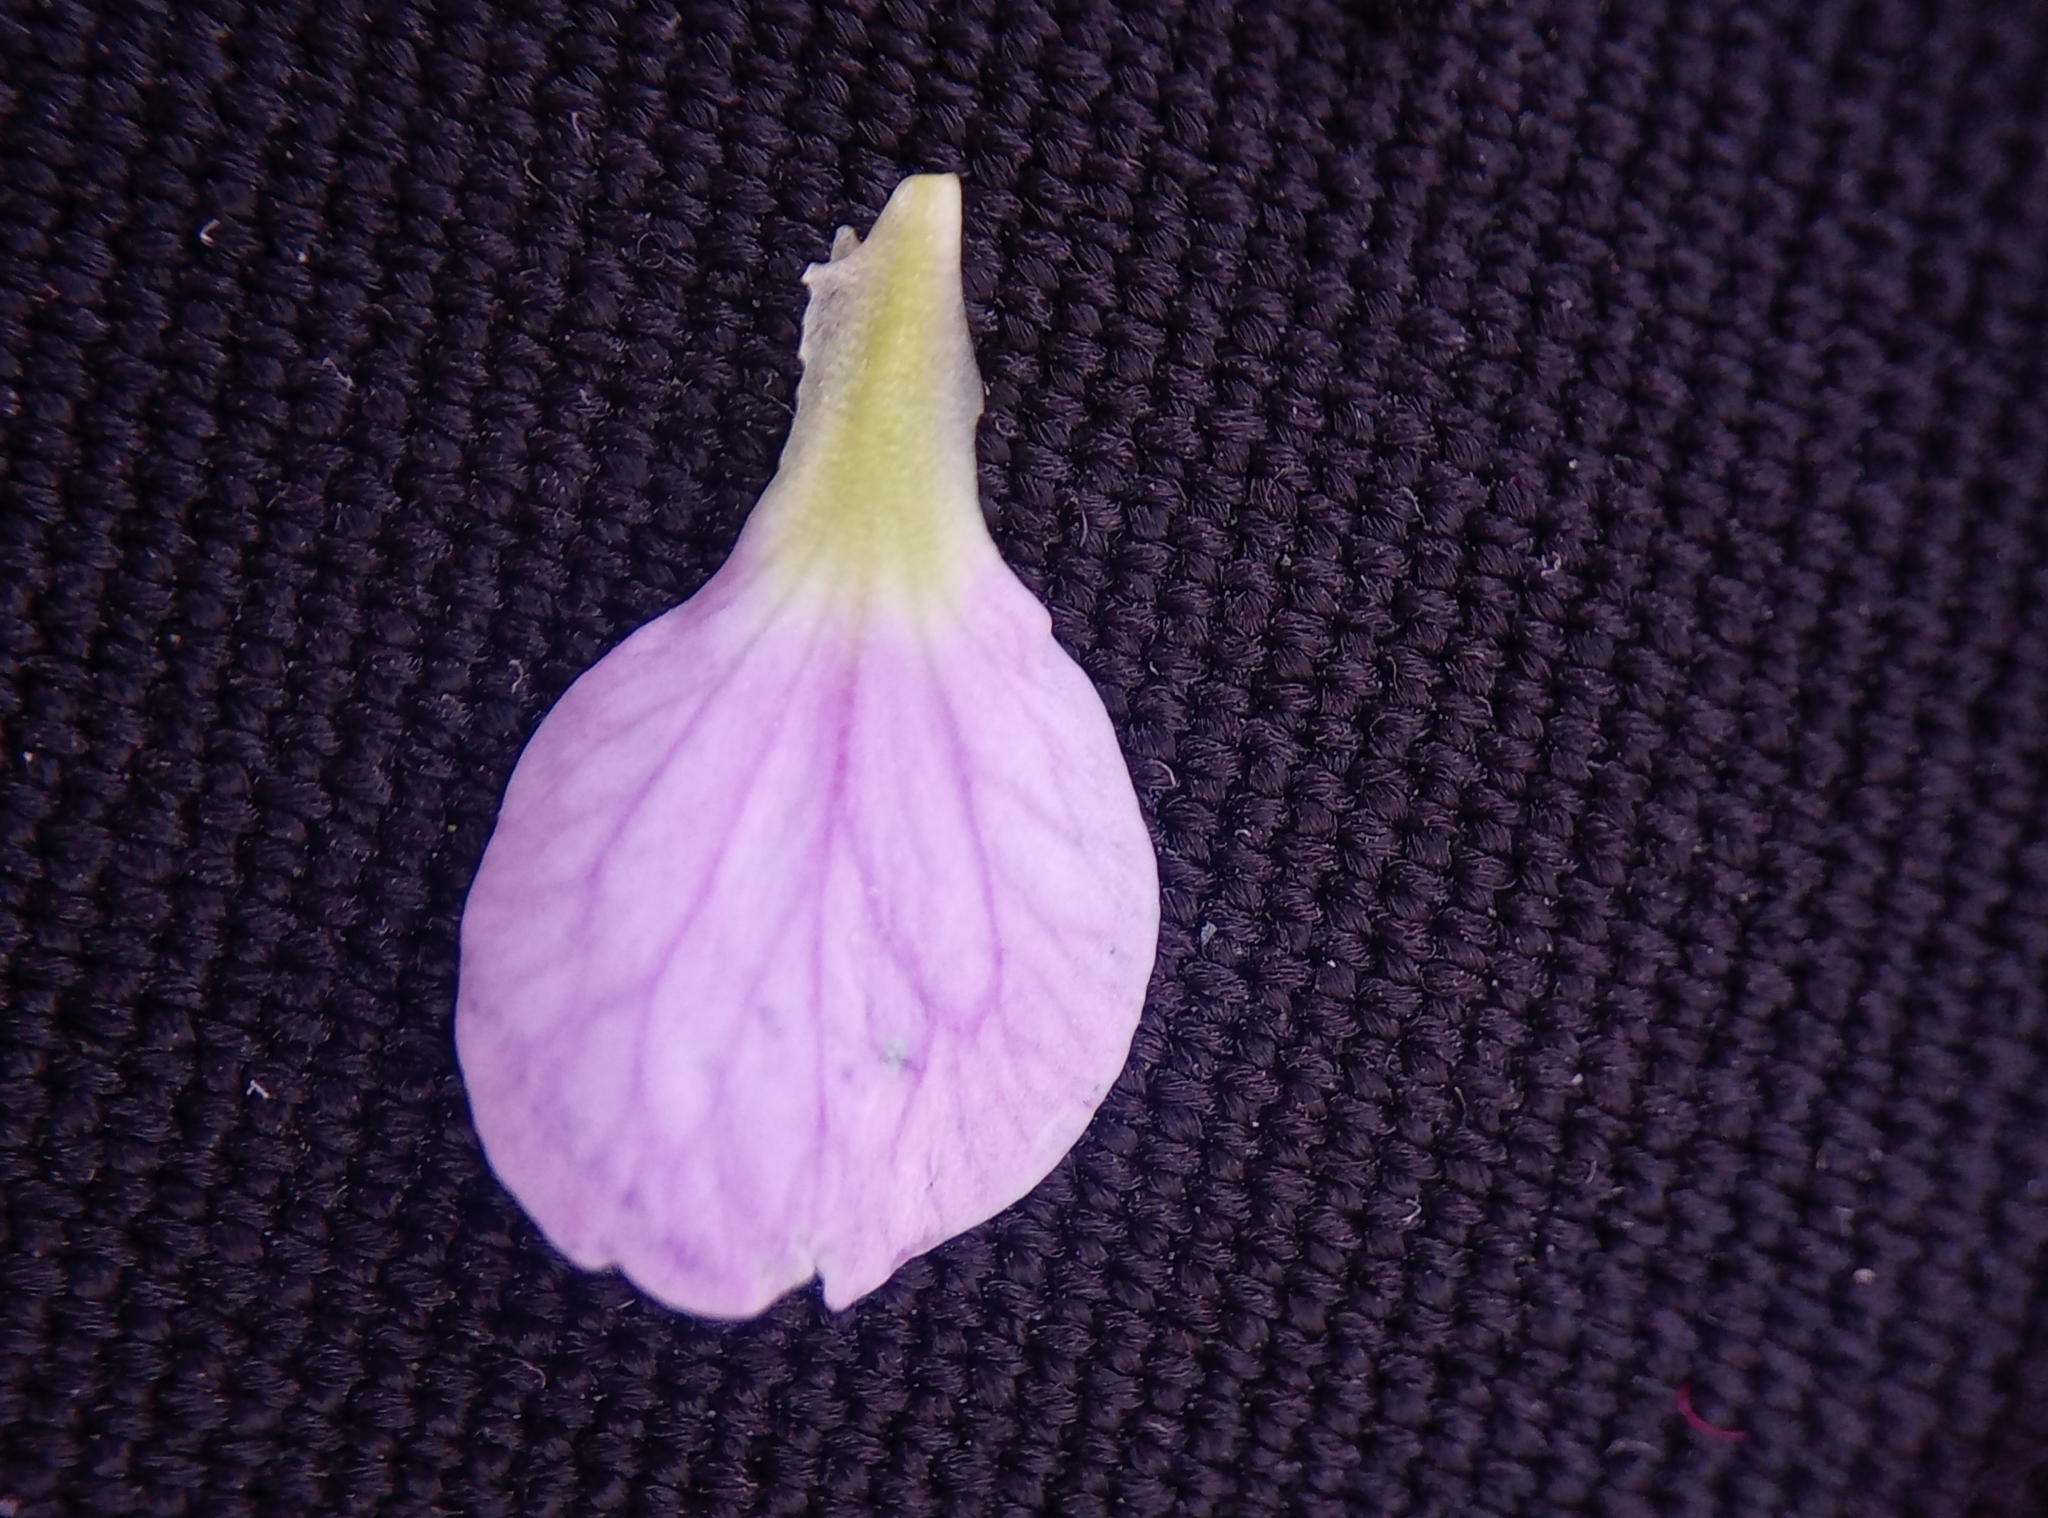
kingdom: Plantae
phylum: Tracheophyta
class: Magnoliopsida
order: Brassicales
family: Brassicaceae
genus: Cardamine
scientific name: Cardamine pratensis
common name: Cuckoo flower
